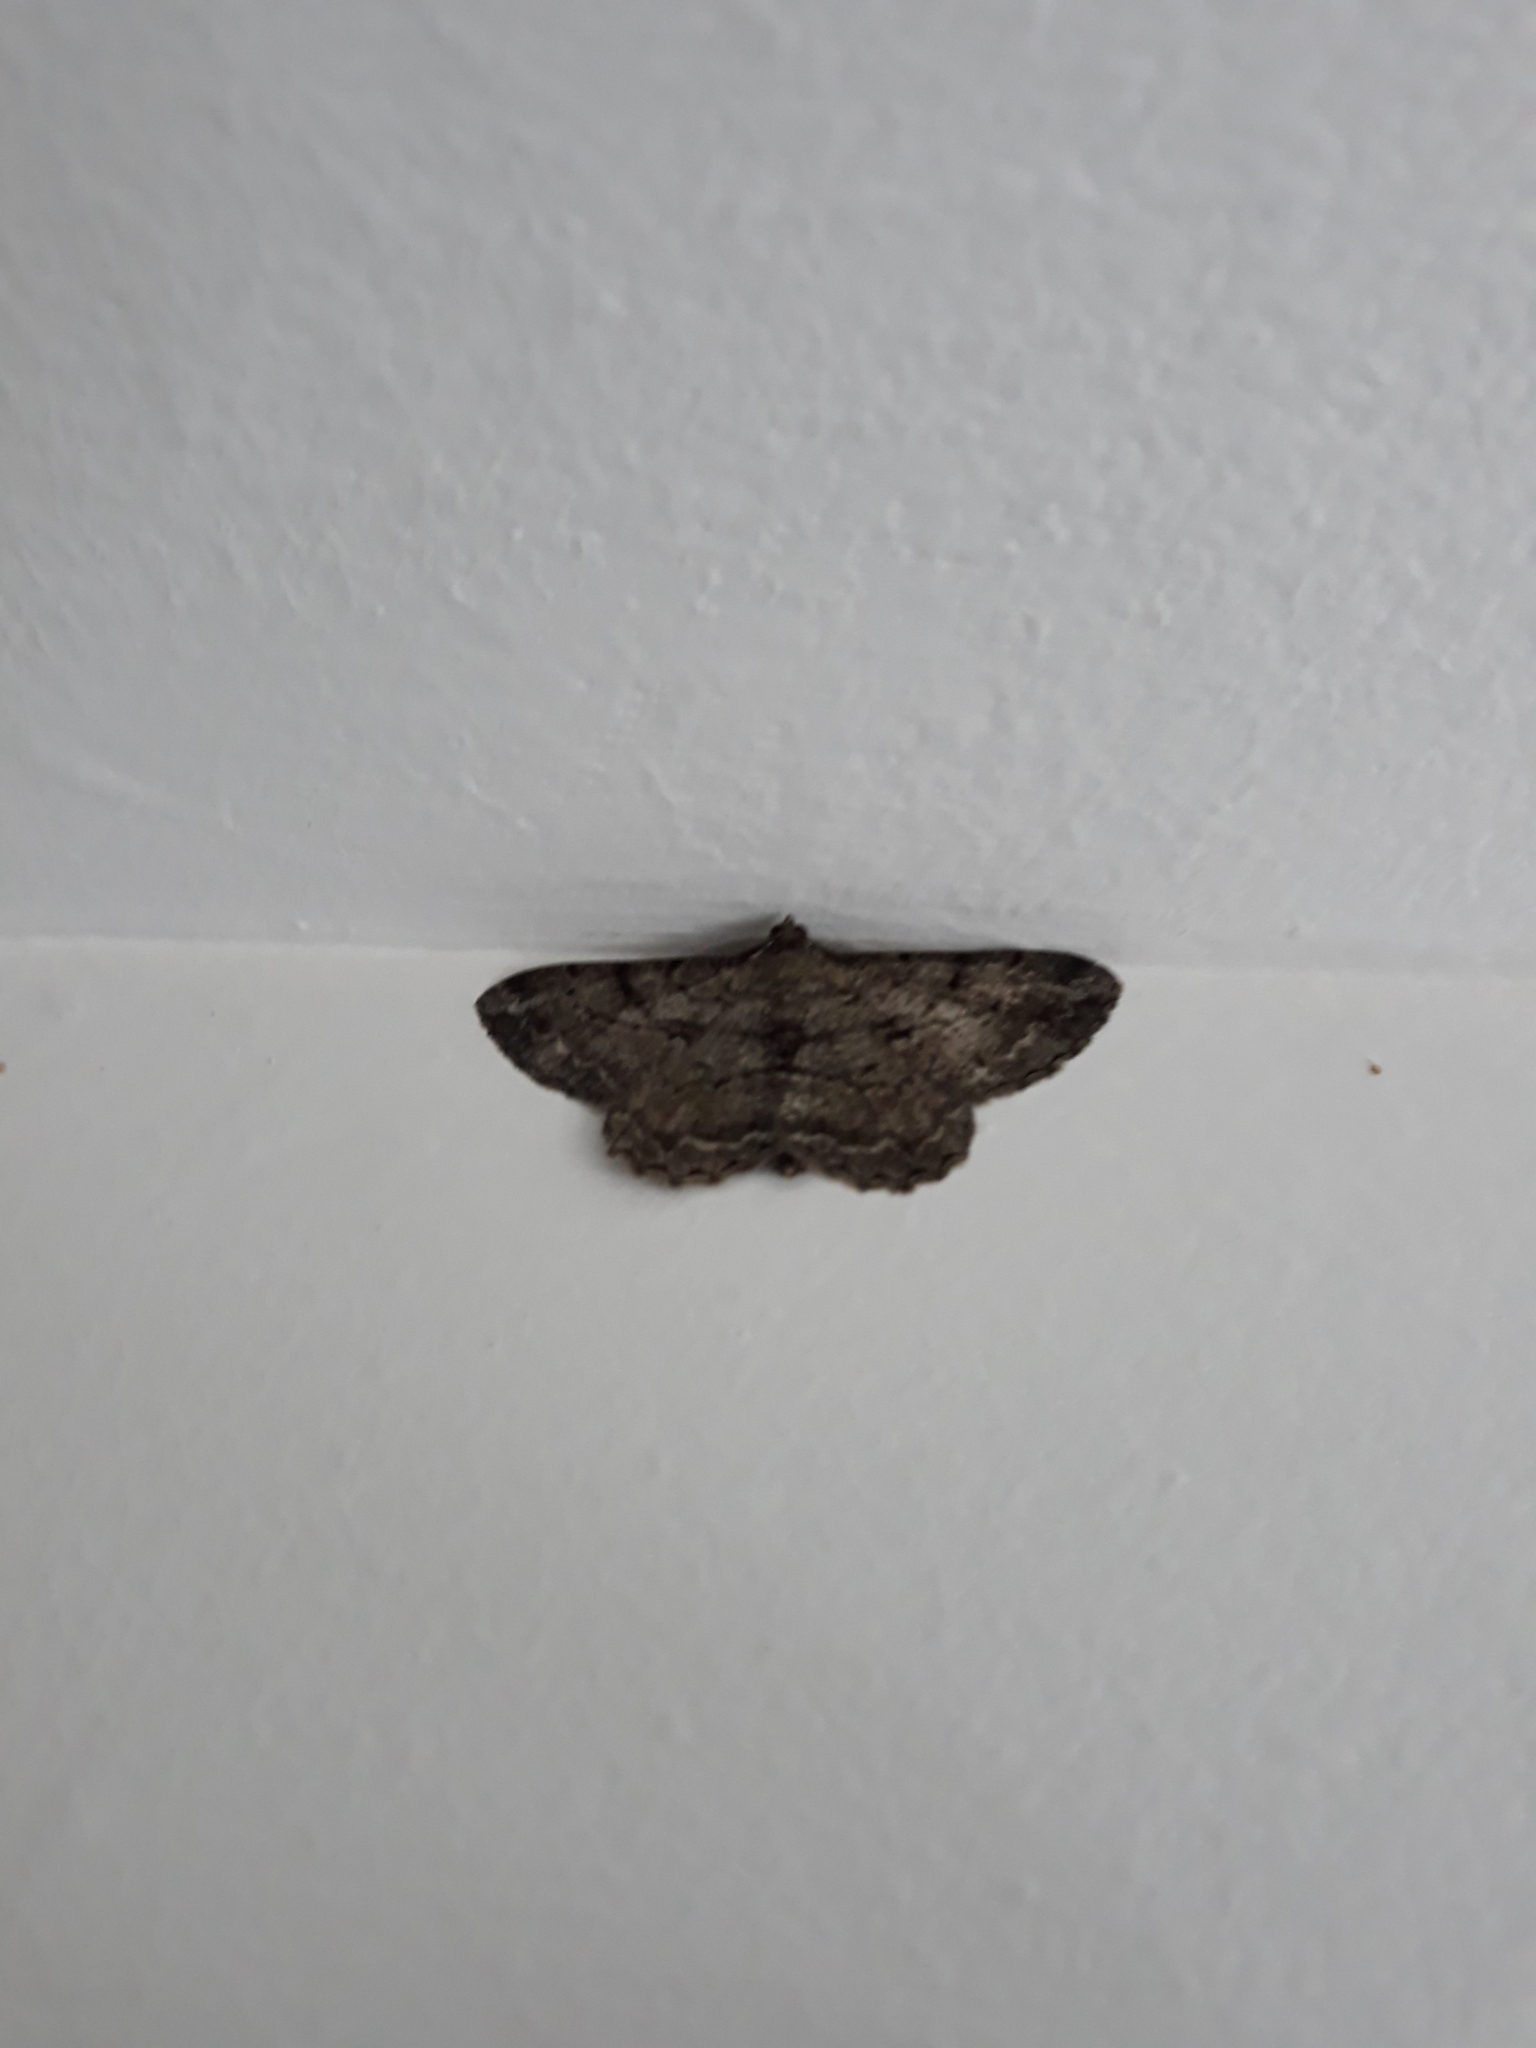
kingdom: Animalia
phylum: Arthropoda
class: Insecta
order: Lepidoptera
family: Geometridae
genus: Peribatodes
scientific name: Peribatodes rhomboidaria
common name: Willow beauty
